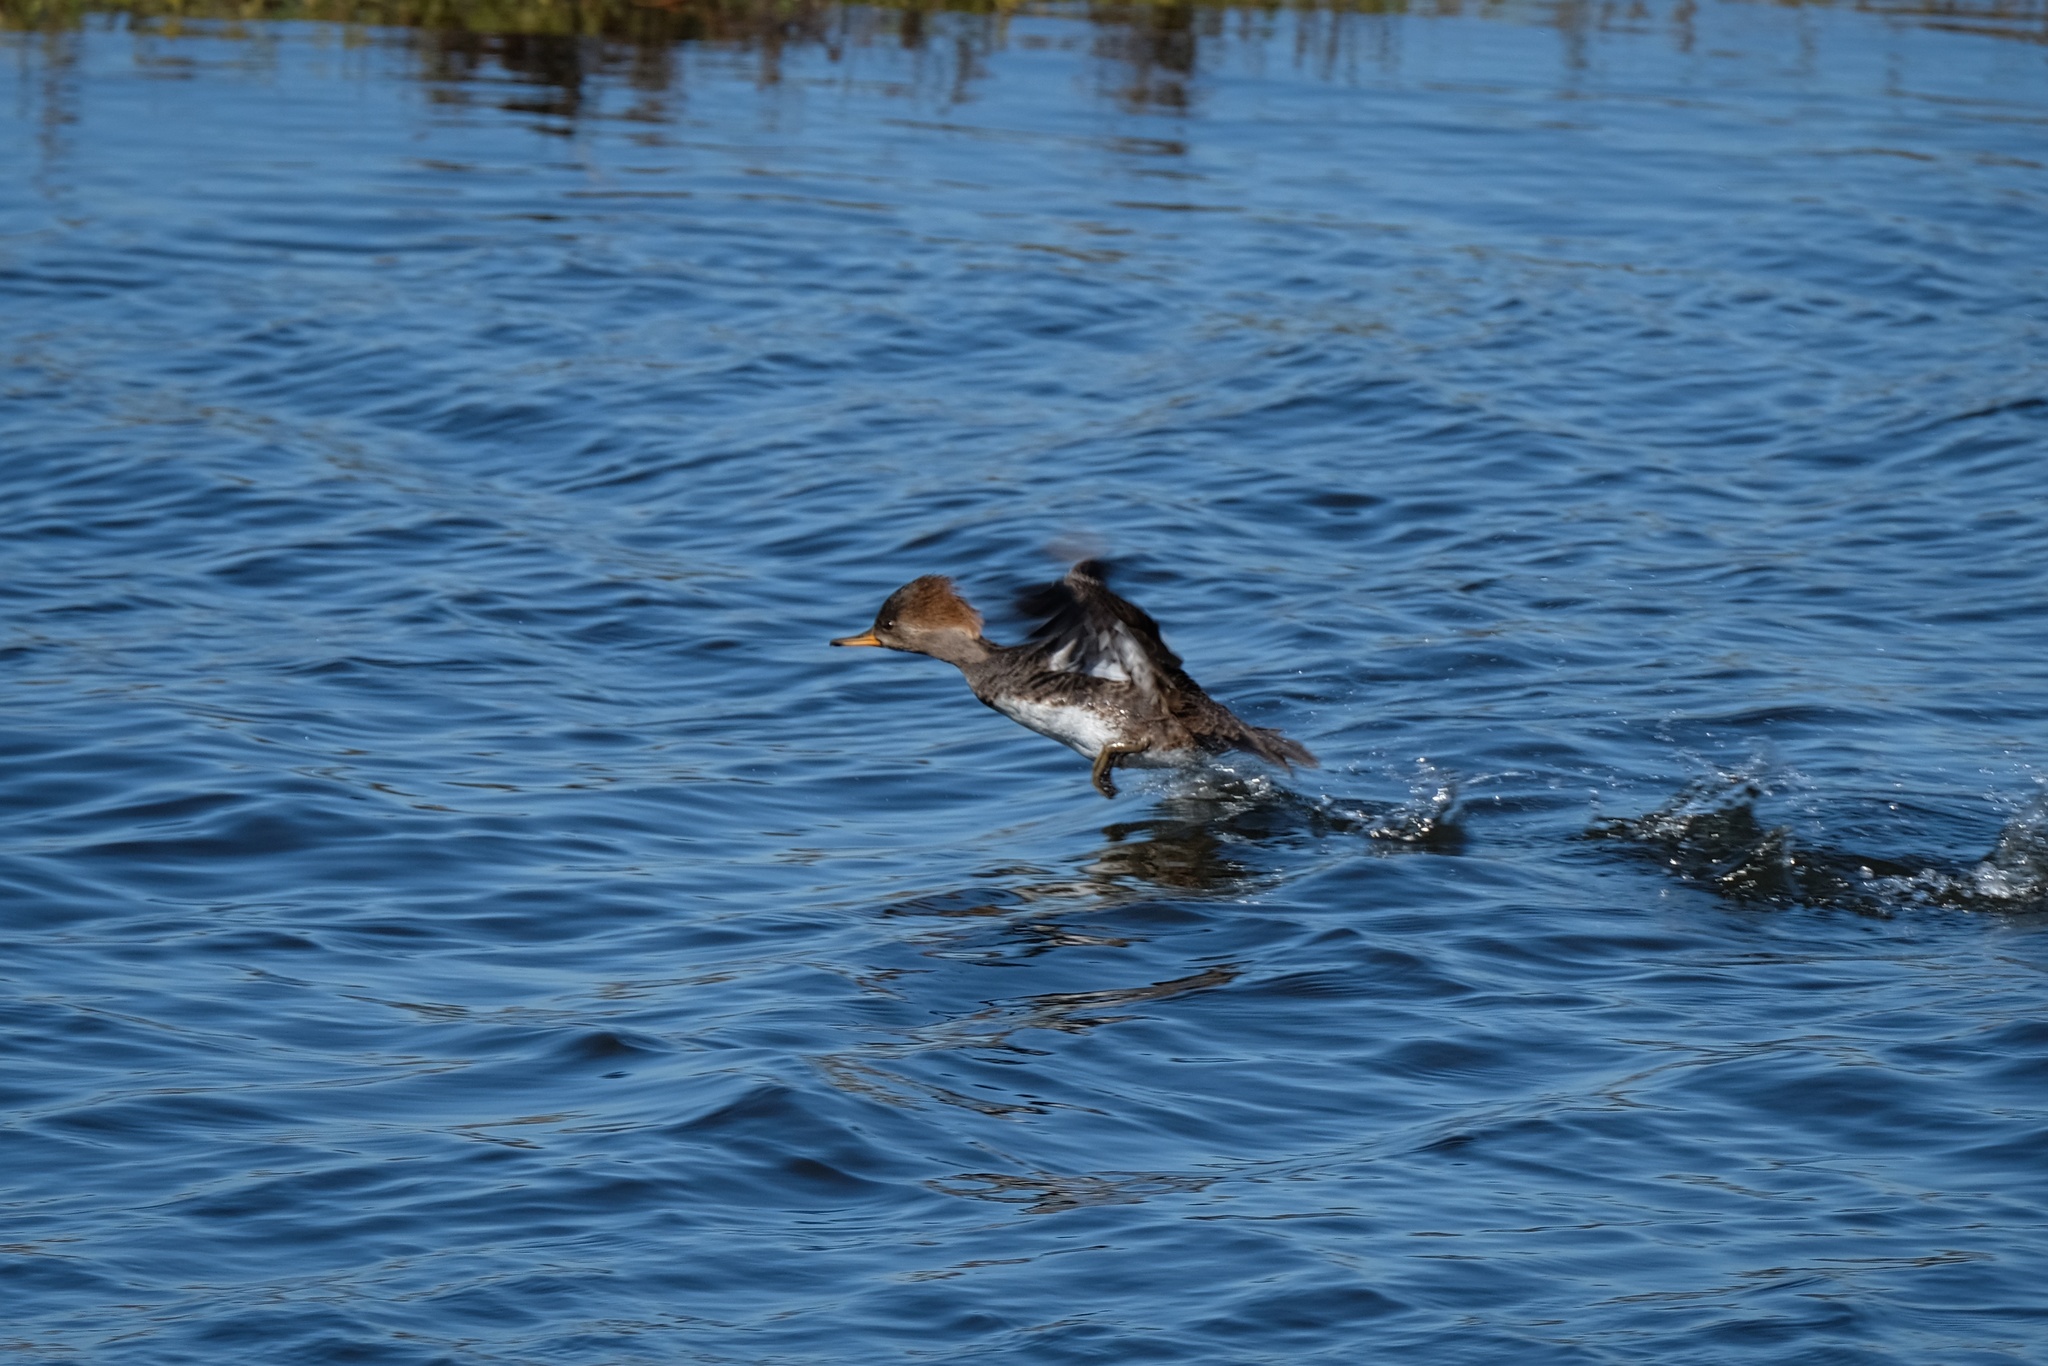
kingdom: Animalia
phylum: Chordata
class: Aves
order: Anseriformes
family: Anatidae
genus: Lophodytes
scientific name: Lophodytes cucullatus
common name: Hooded merganser
